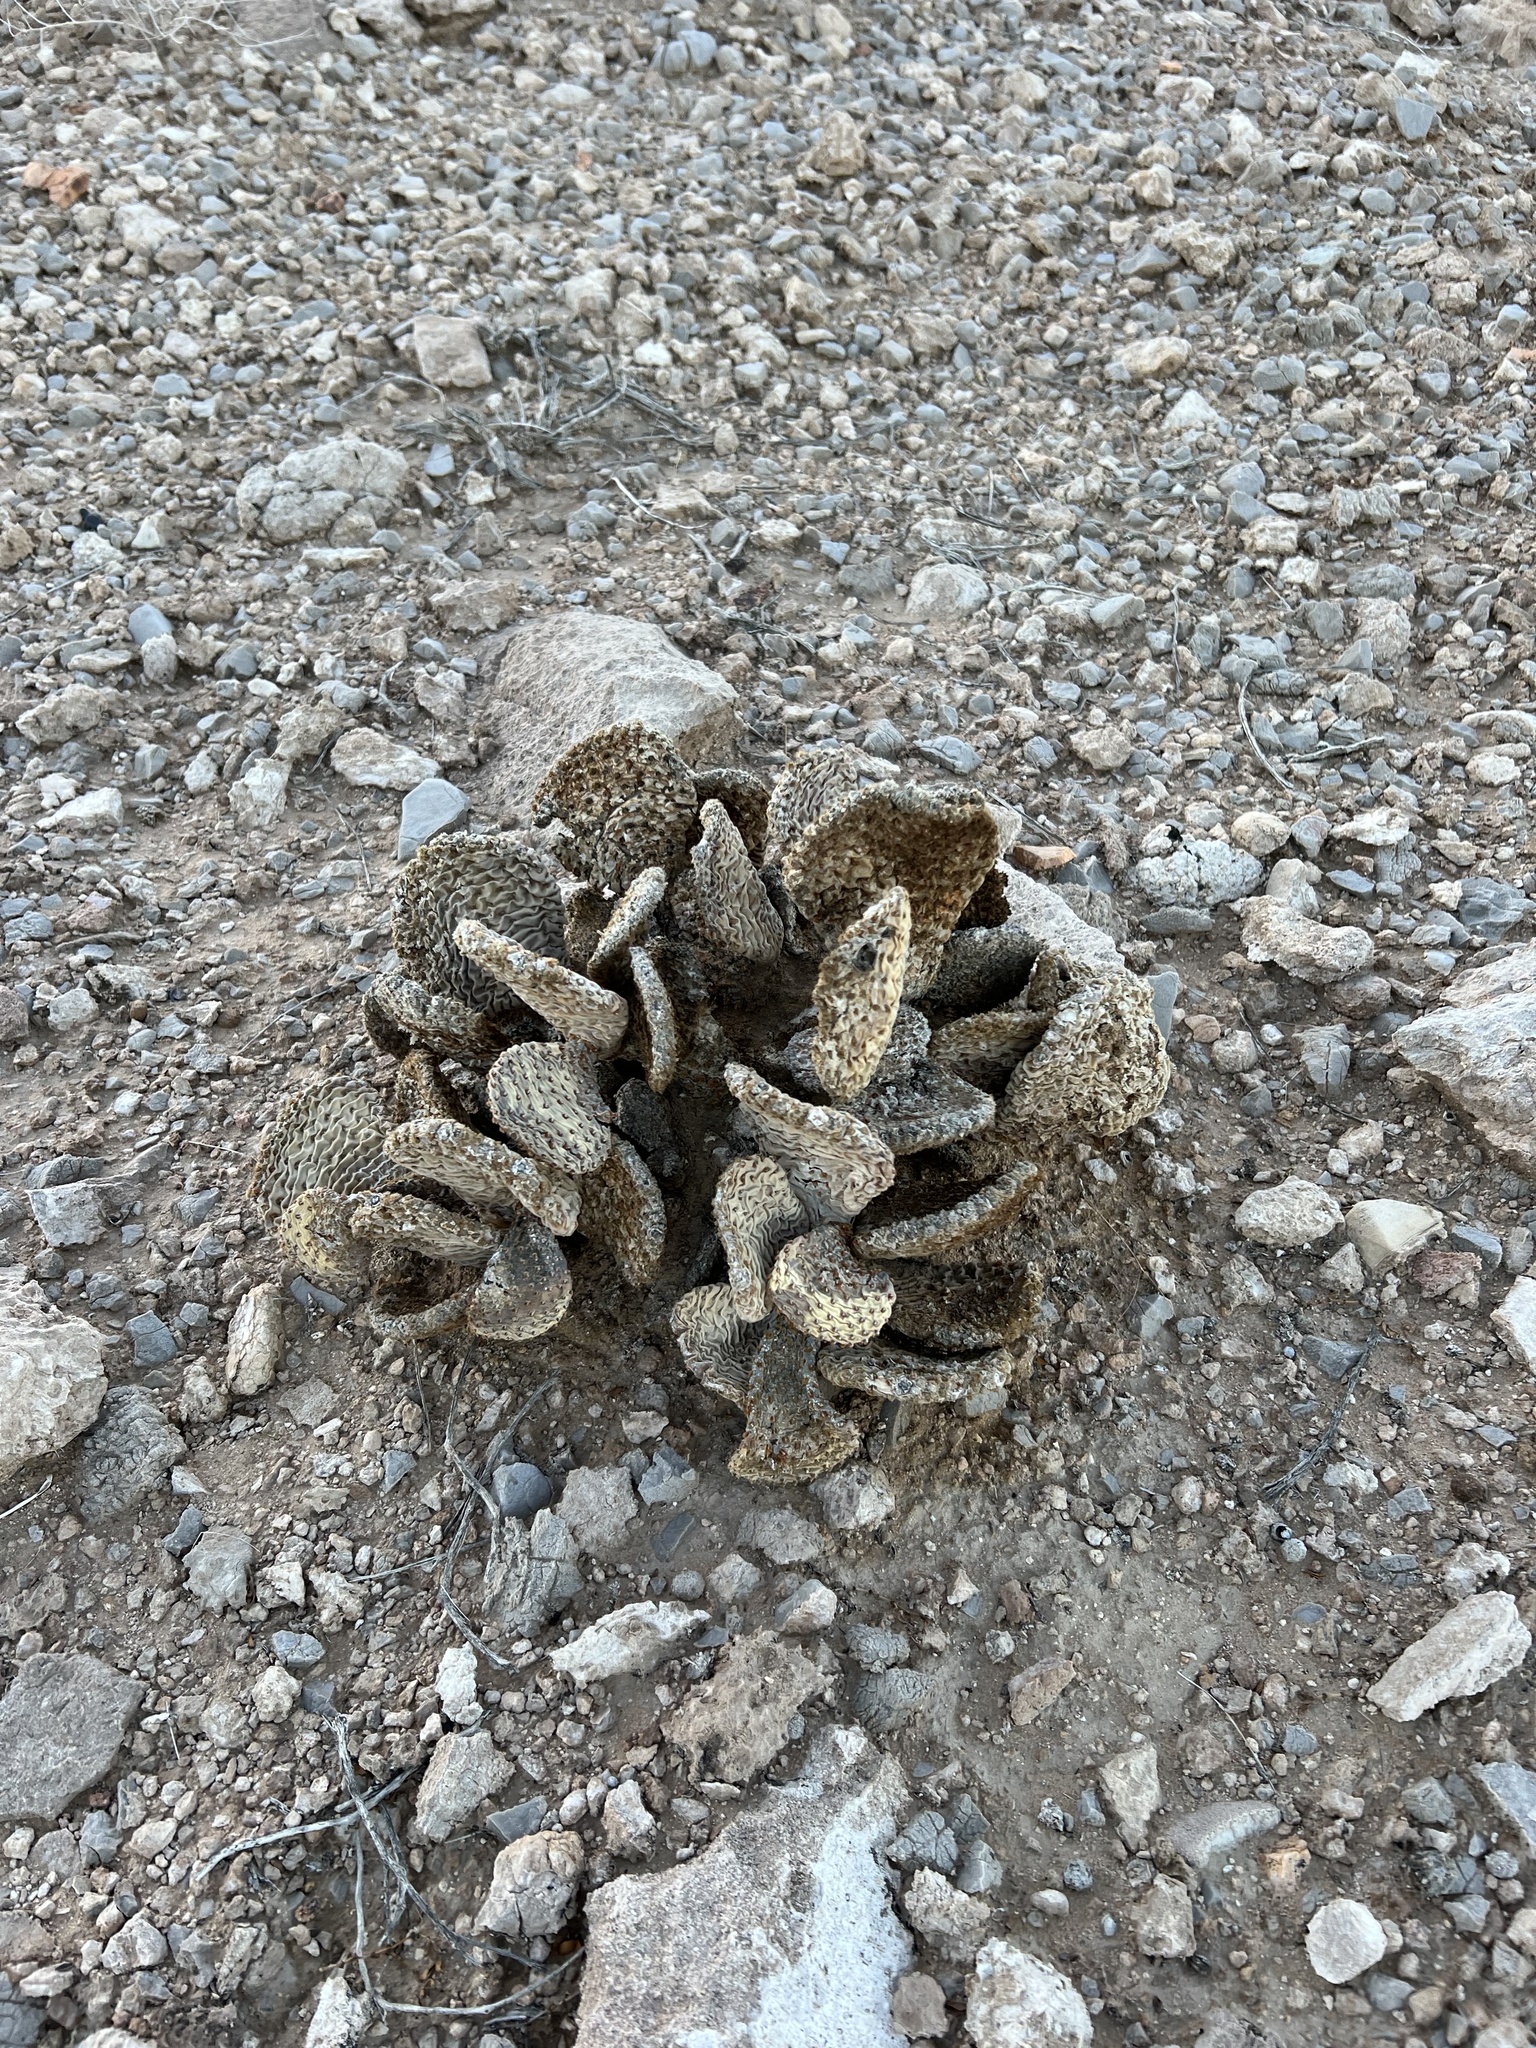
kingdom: Plantae
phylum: Tracheophyta
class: Magnoliopsida
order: Caryophyllales
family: Cactaceae
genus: Opuntia
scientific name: Opuntia basilaris
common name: Beavertail prickly-pear
